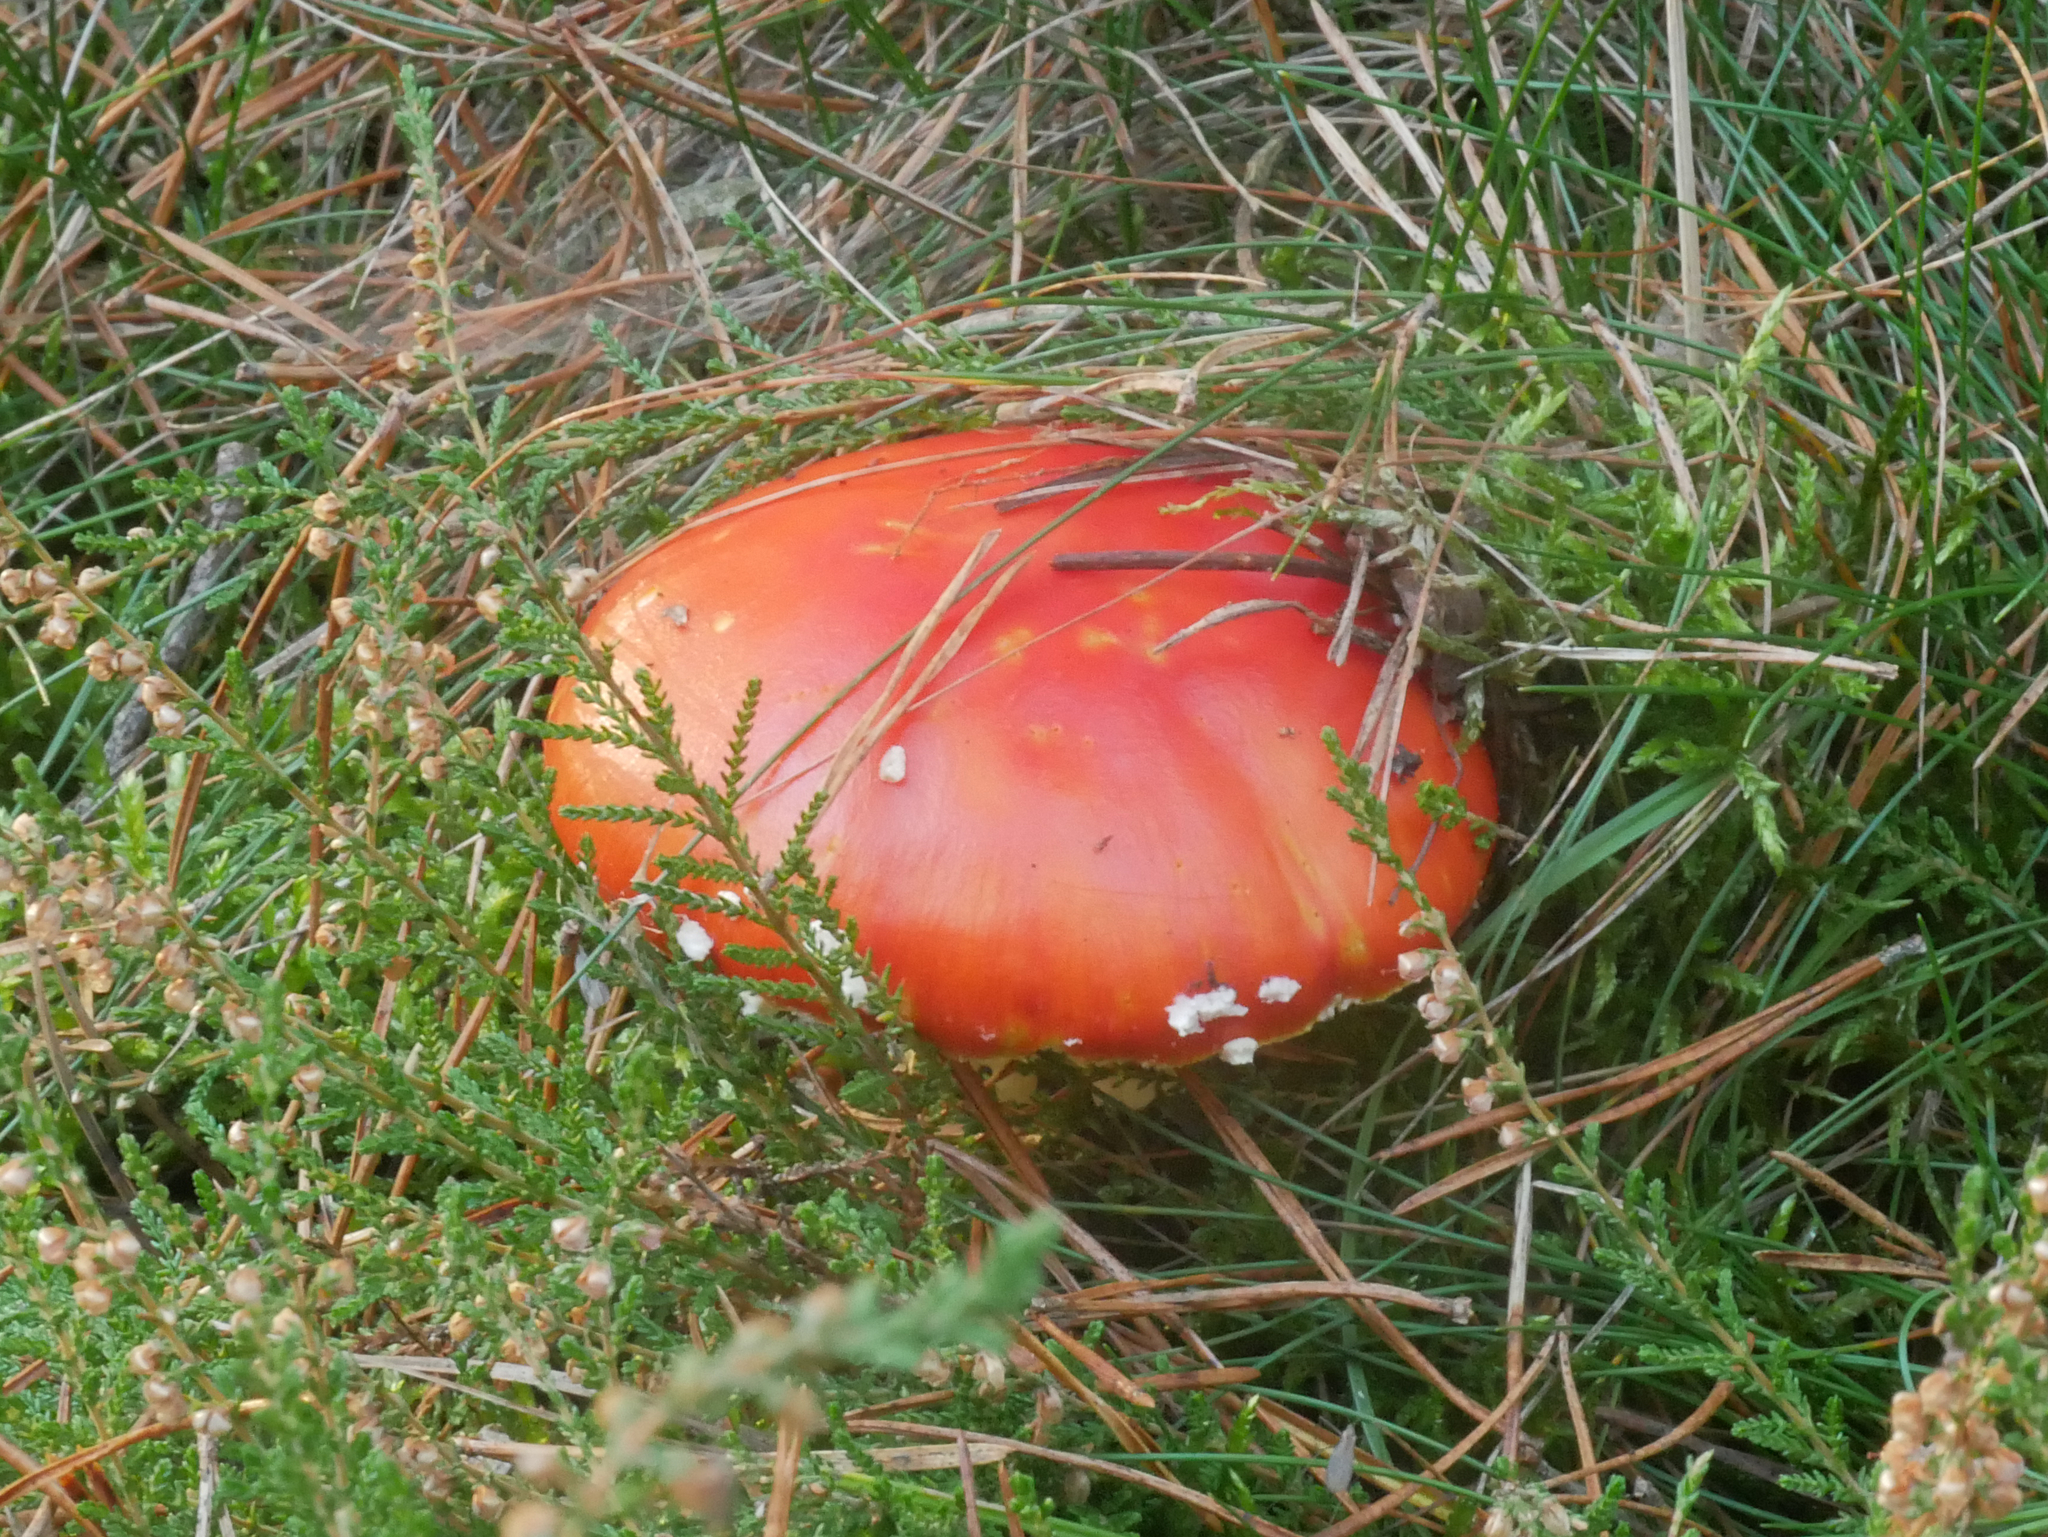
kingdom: Fungi
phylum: Basidiomycota
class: Agaricomycetes
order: Agaricales
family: Amanitaceae
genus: Amanita
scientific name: Amanita muscaria
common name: Fly agaric
